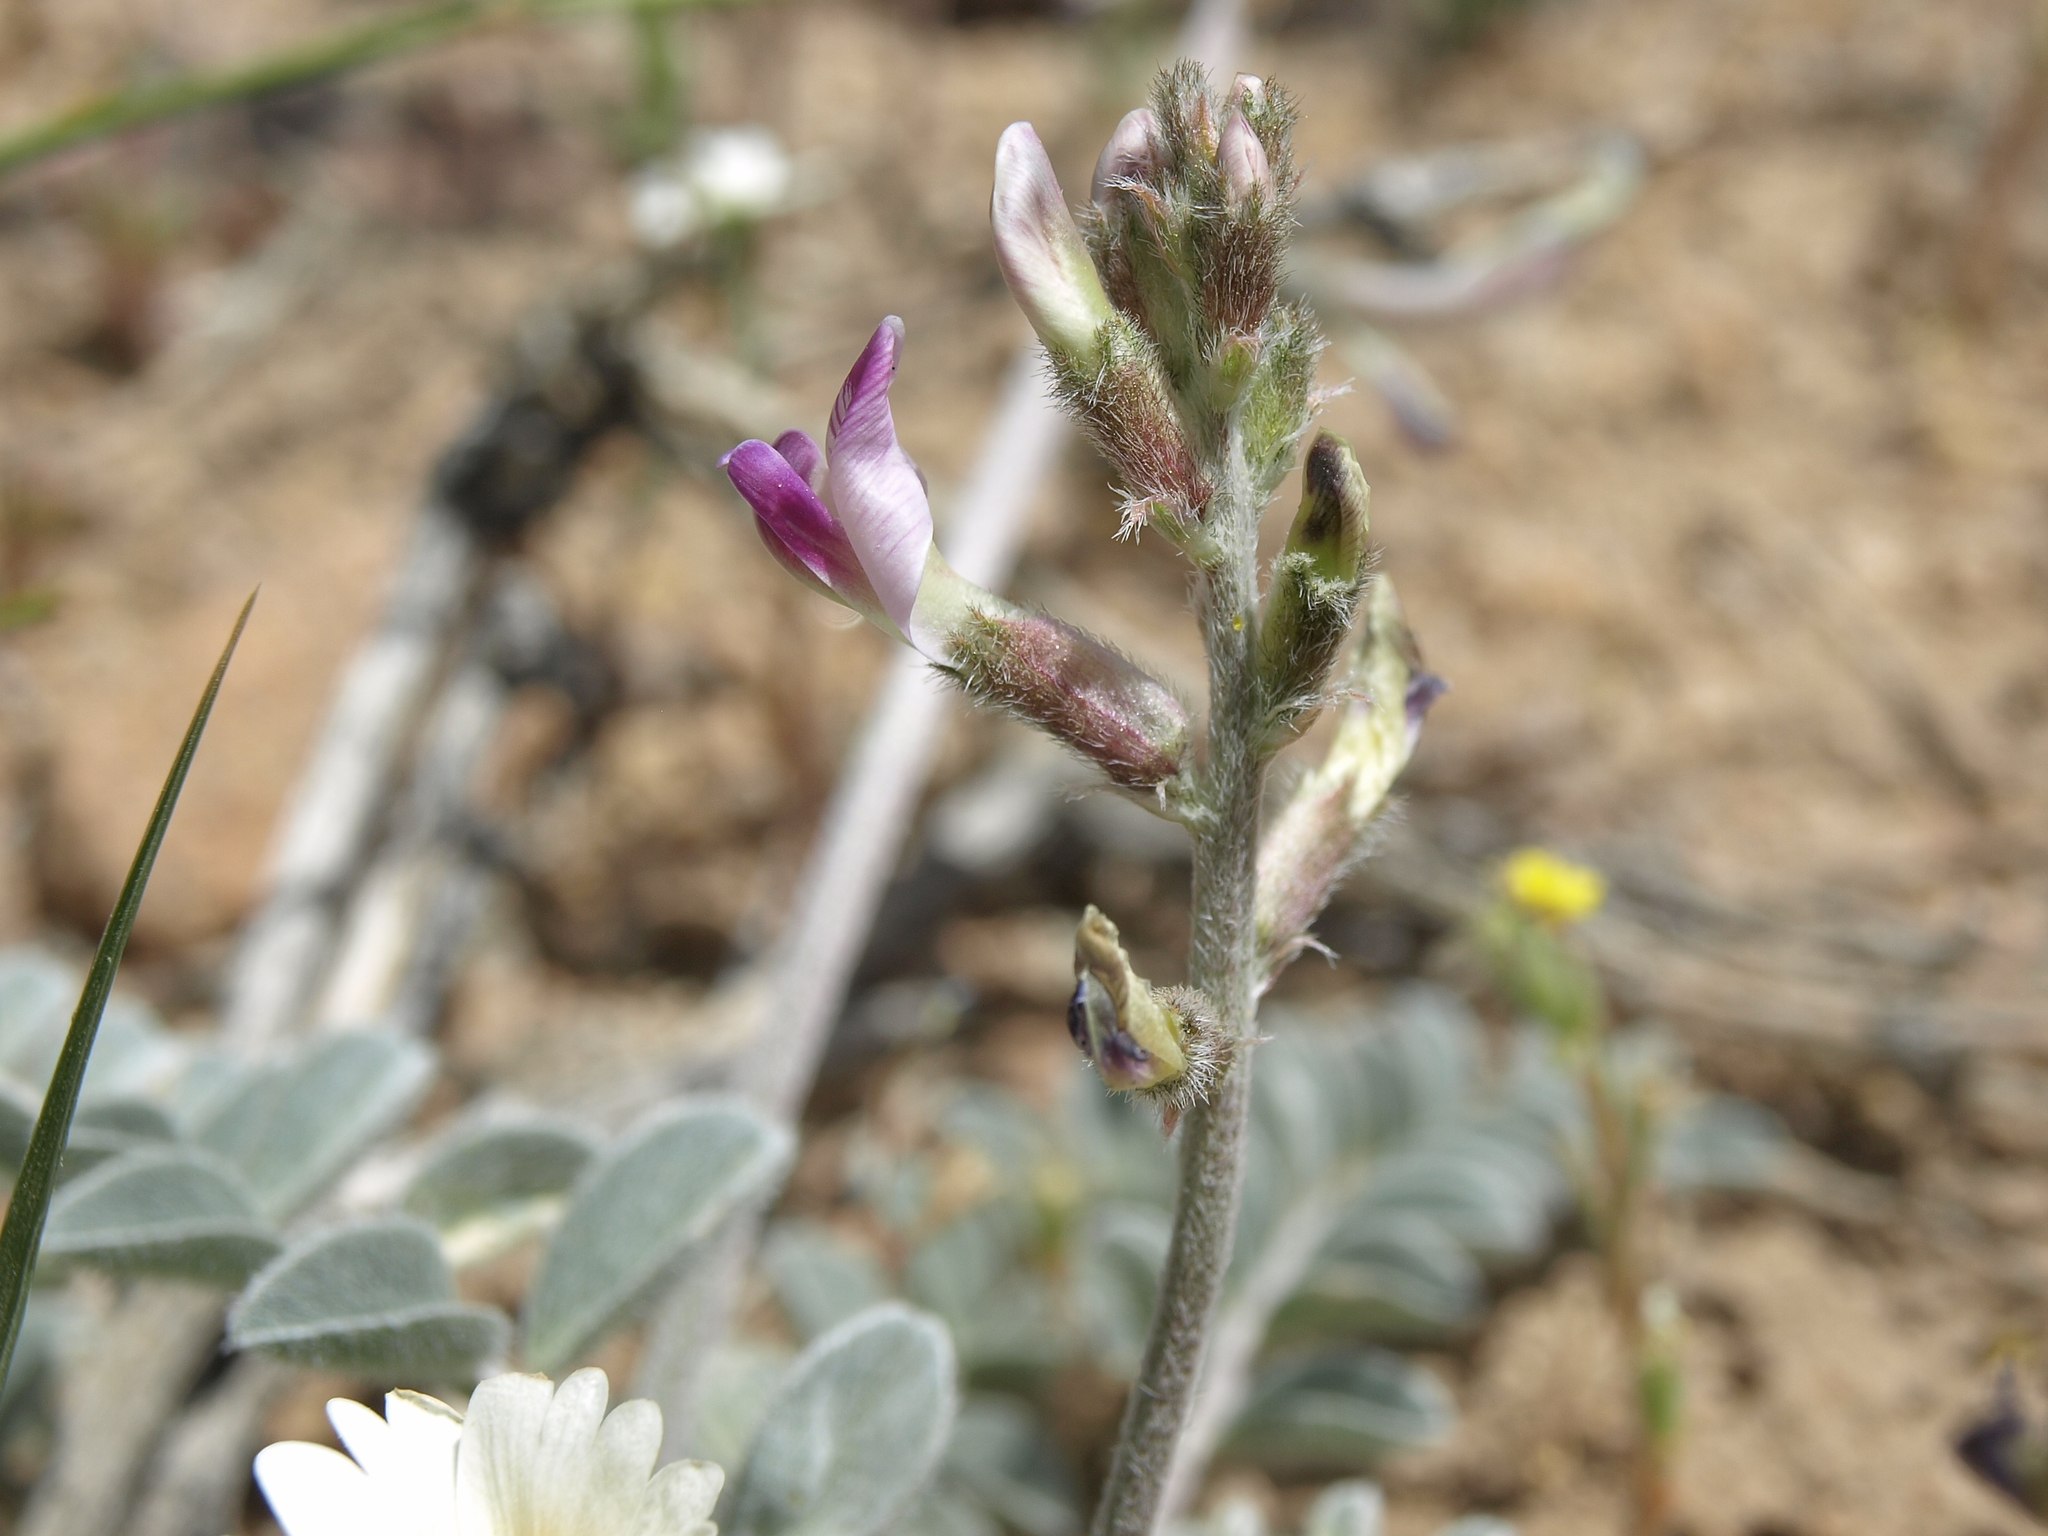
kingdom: Plantae
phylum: Tracheophyta
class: Magnoliopsida
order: Fabales
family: Fabaceae
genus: Astragalus
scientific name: Astragalus layneae
